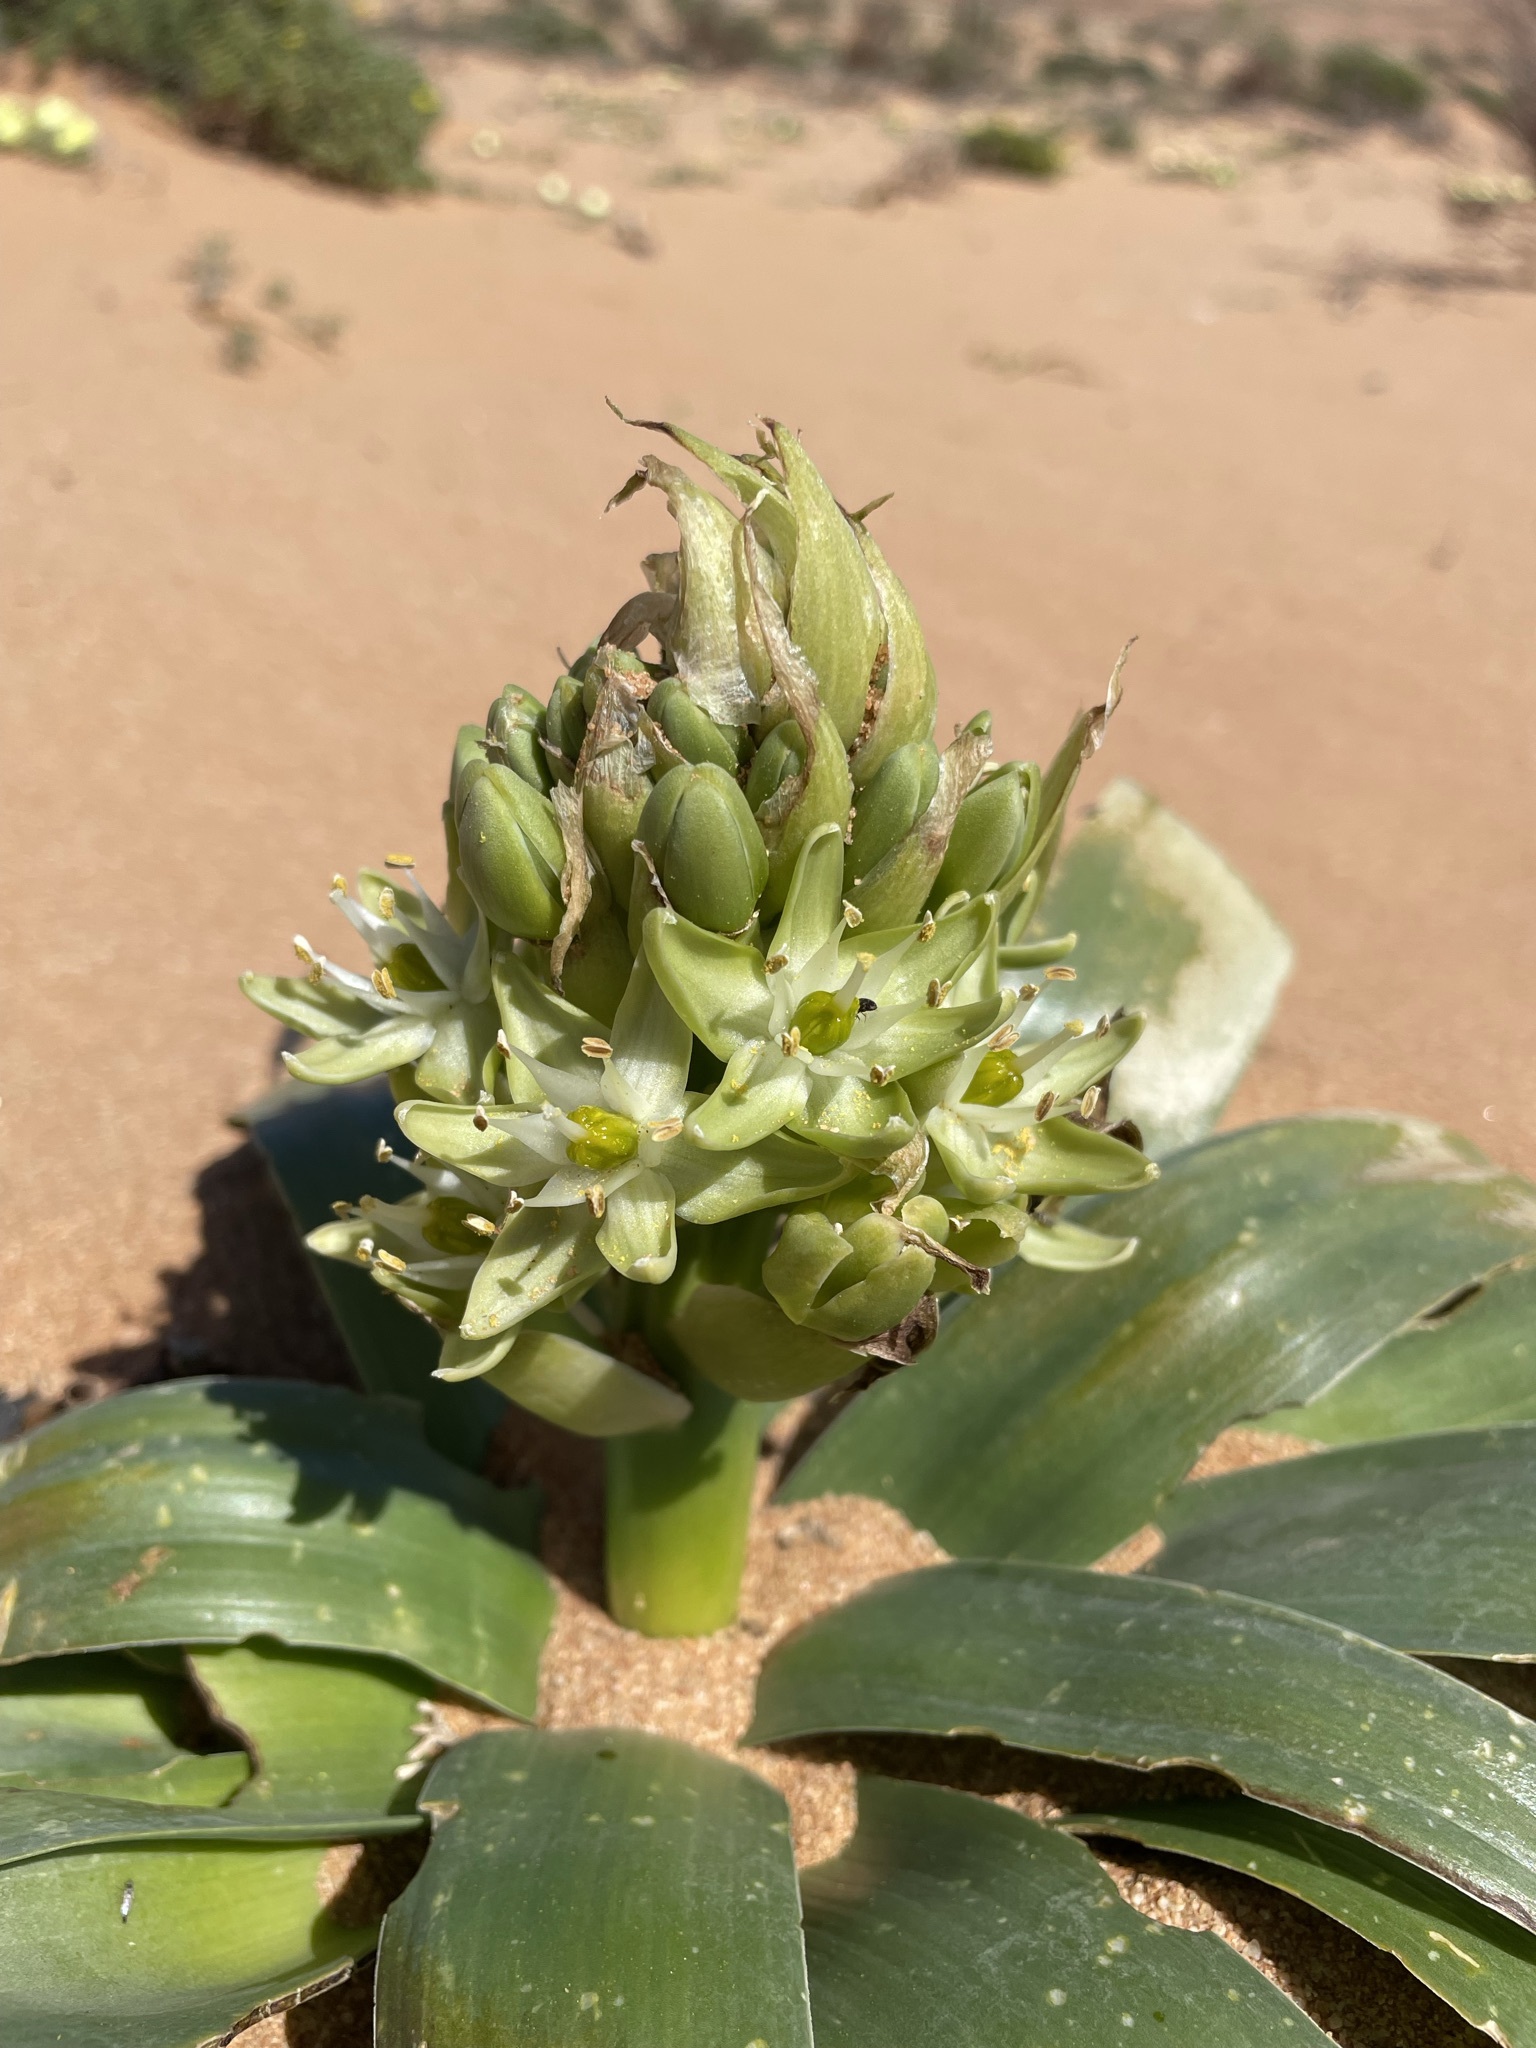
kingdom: Plantae
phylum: Tracheophyta
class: Liliopsida
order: Asparagales
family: Asparagaceae
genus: Ornithogalum
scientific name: Ornithogalum xanthochlorum
